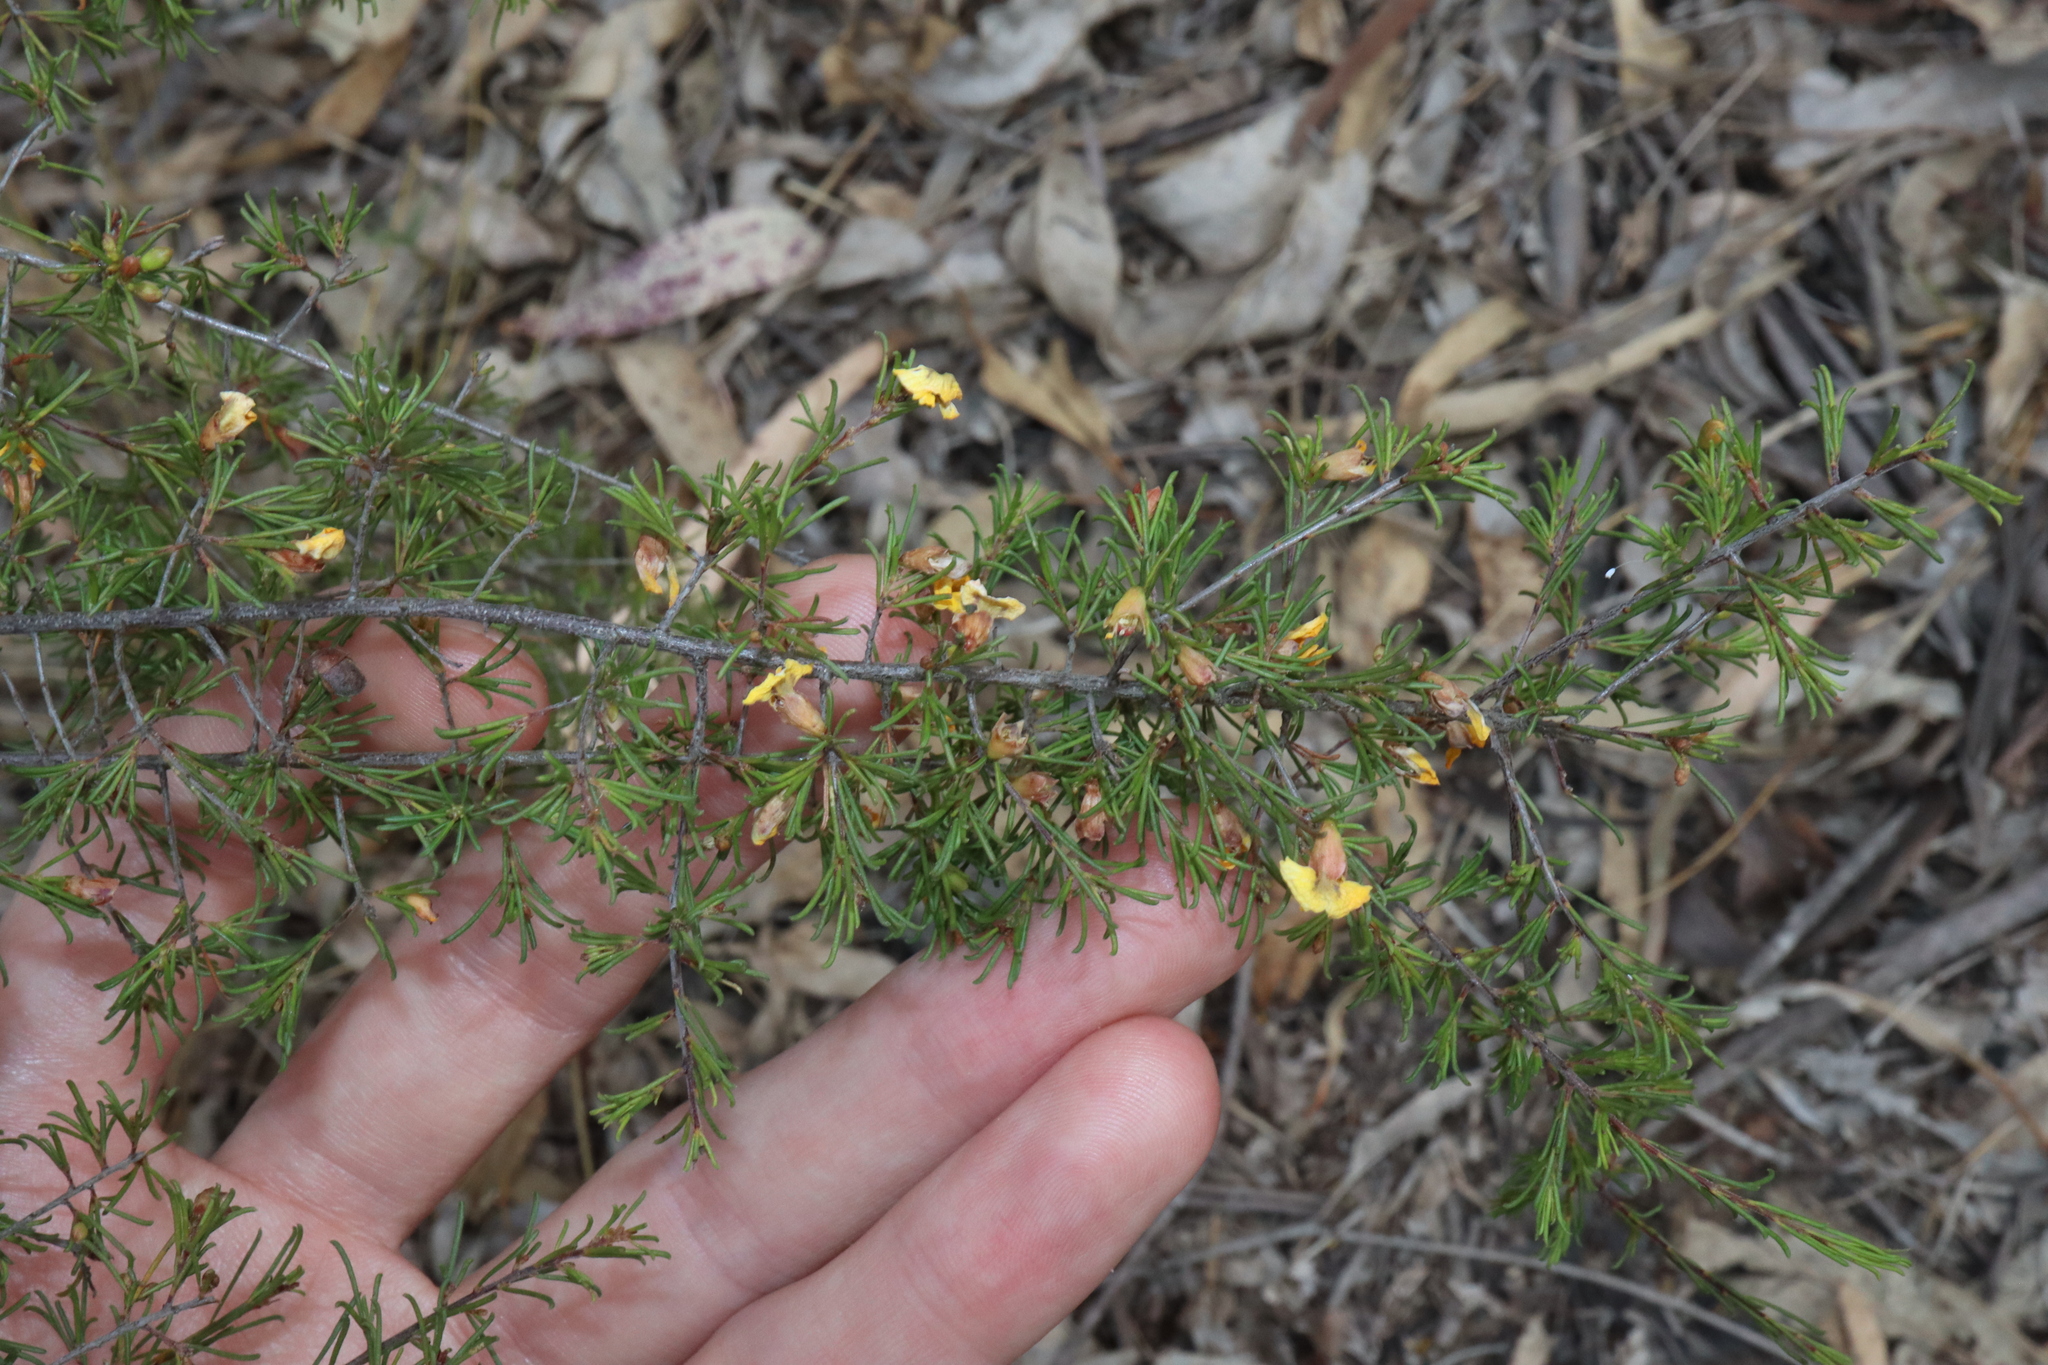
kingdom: Plantae
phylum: Tracheophyta
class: Magnoliopsida
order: Fabales
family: Fabaceae
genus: Dillwynia
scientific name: Dillwynia tenuifolia
